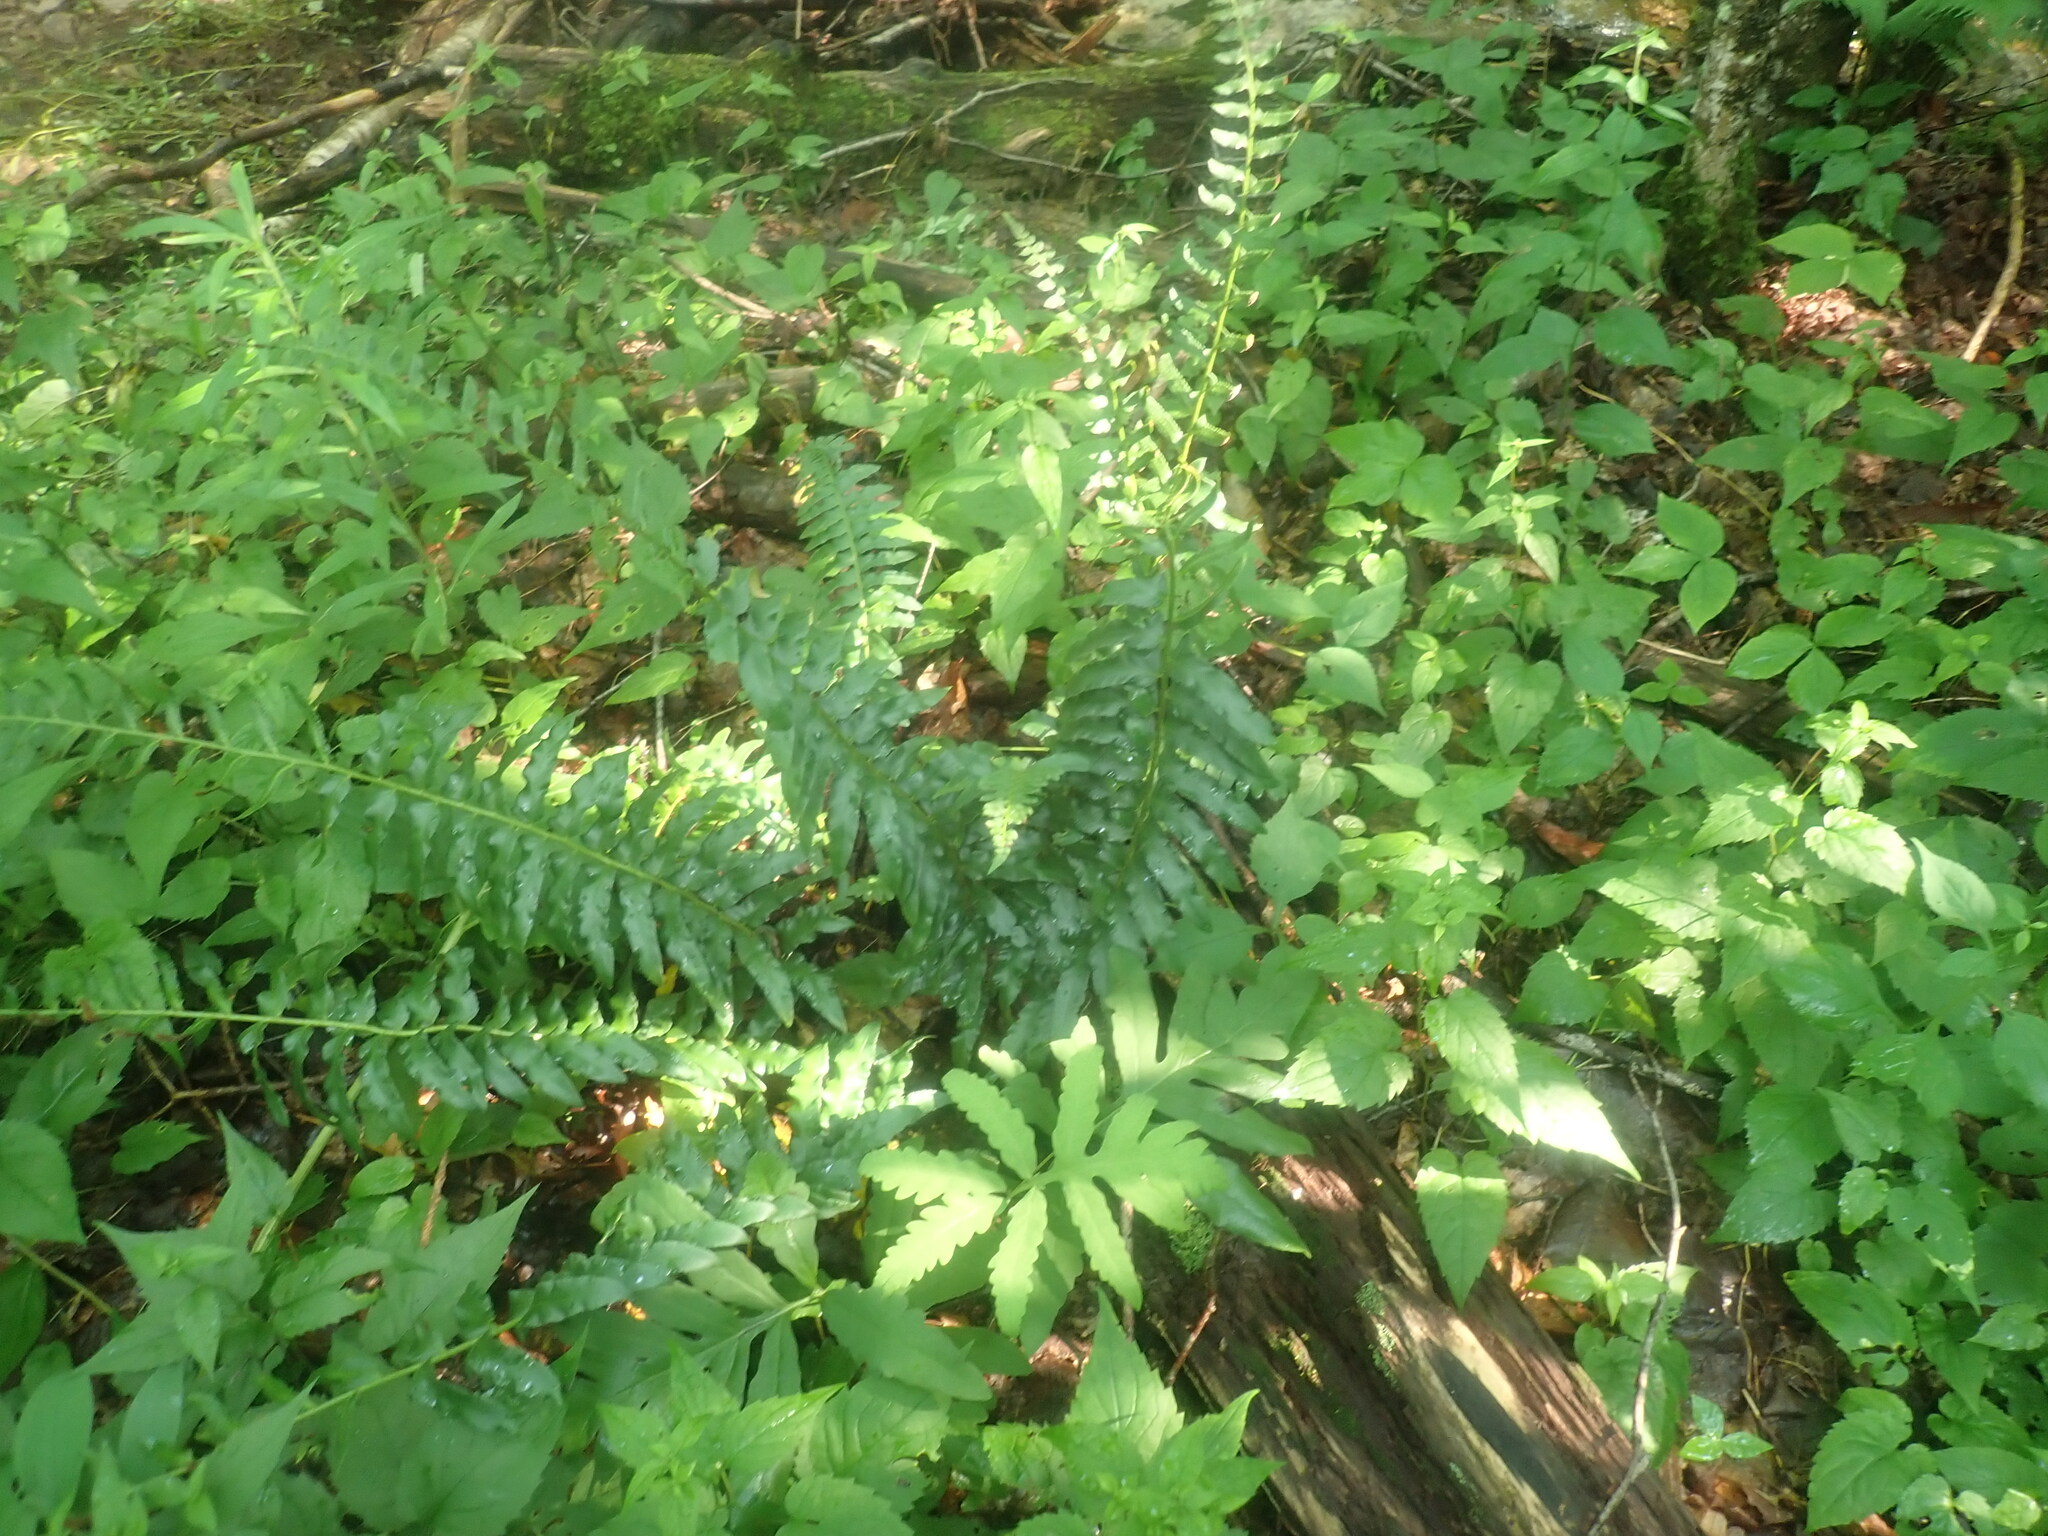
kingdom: Plantae
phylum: Tracheophyta
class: Polypodiopsida
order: Polypodiales
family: Dryopteridaceae
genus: Polystichum
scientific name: Polystichum acrostichoides
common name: Christmas fern
